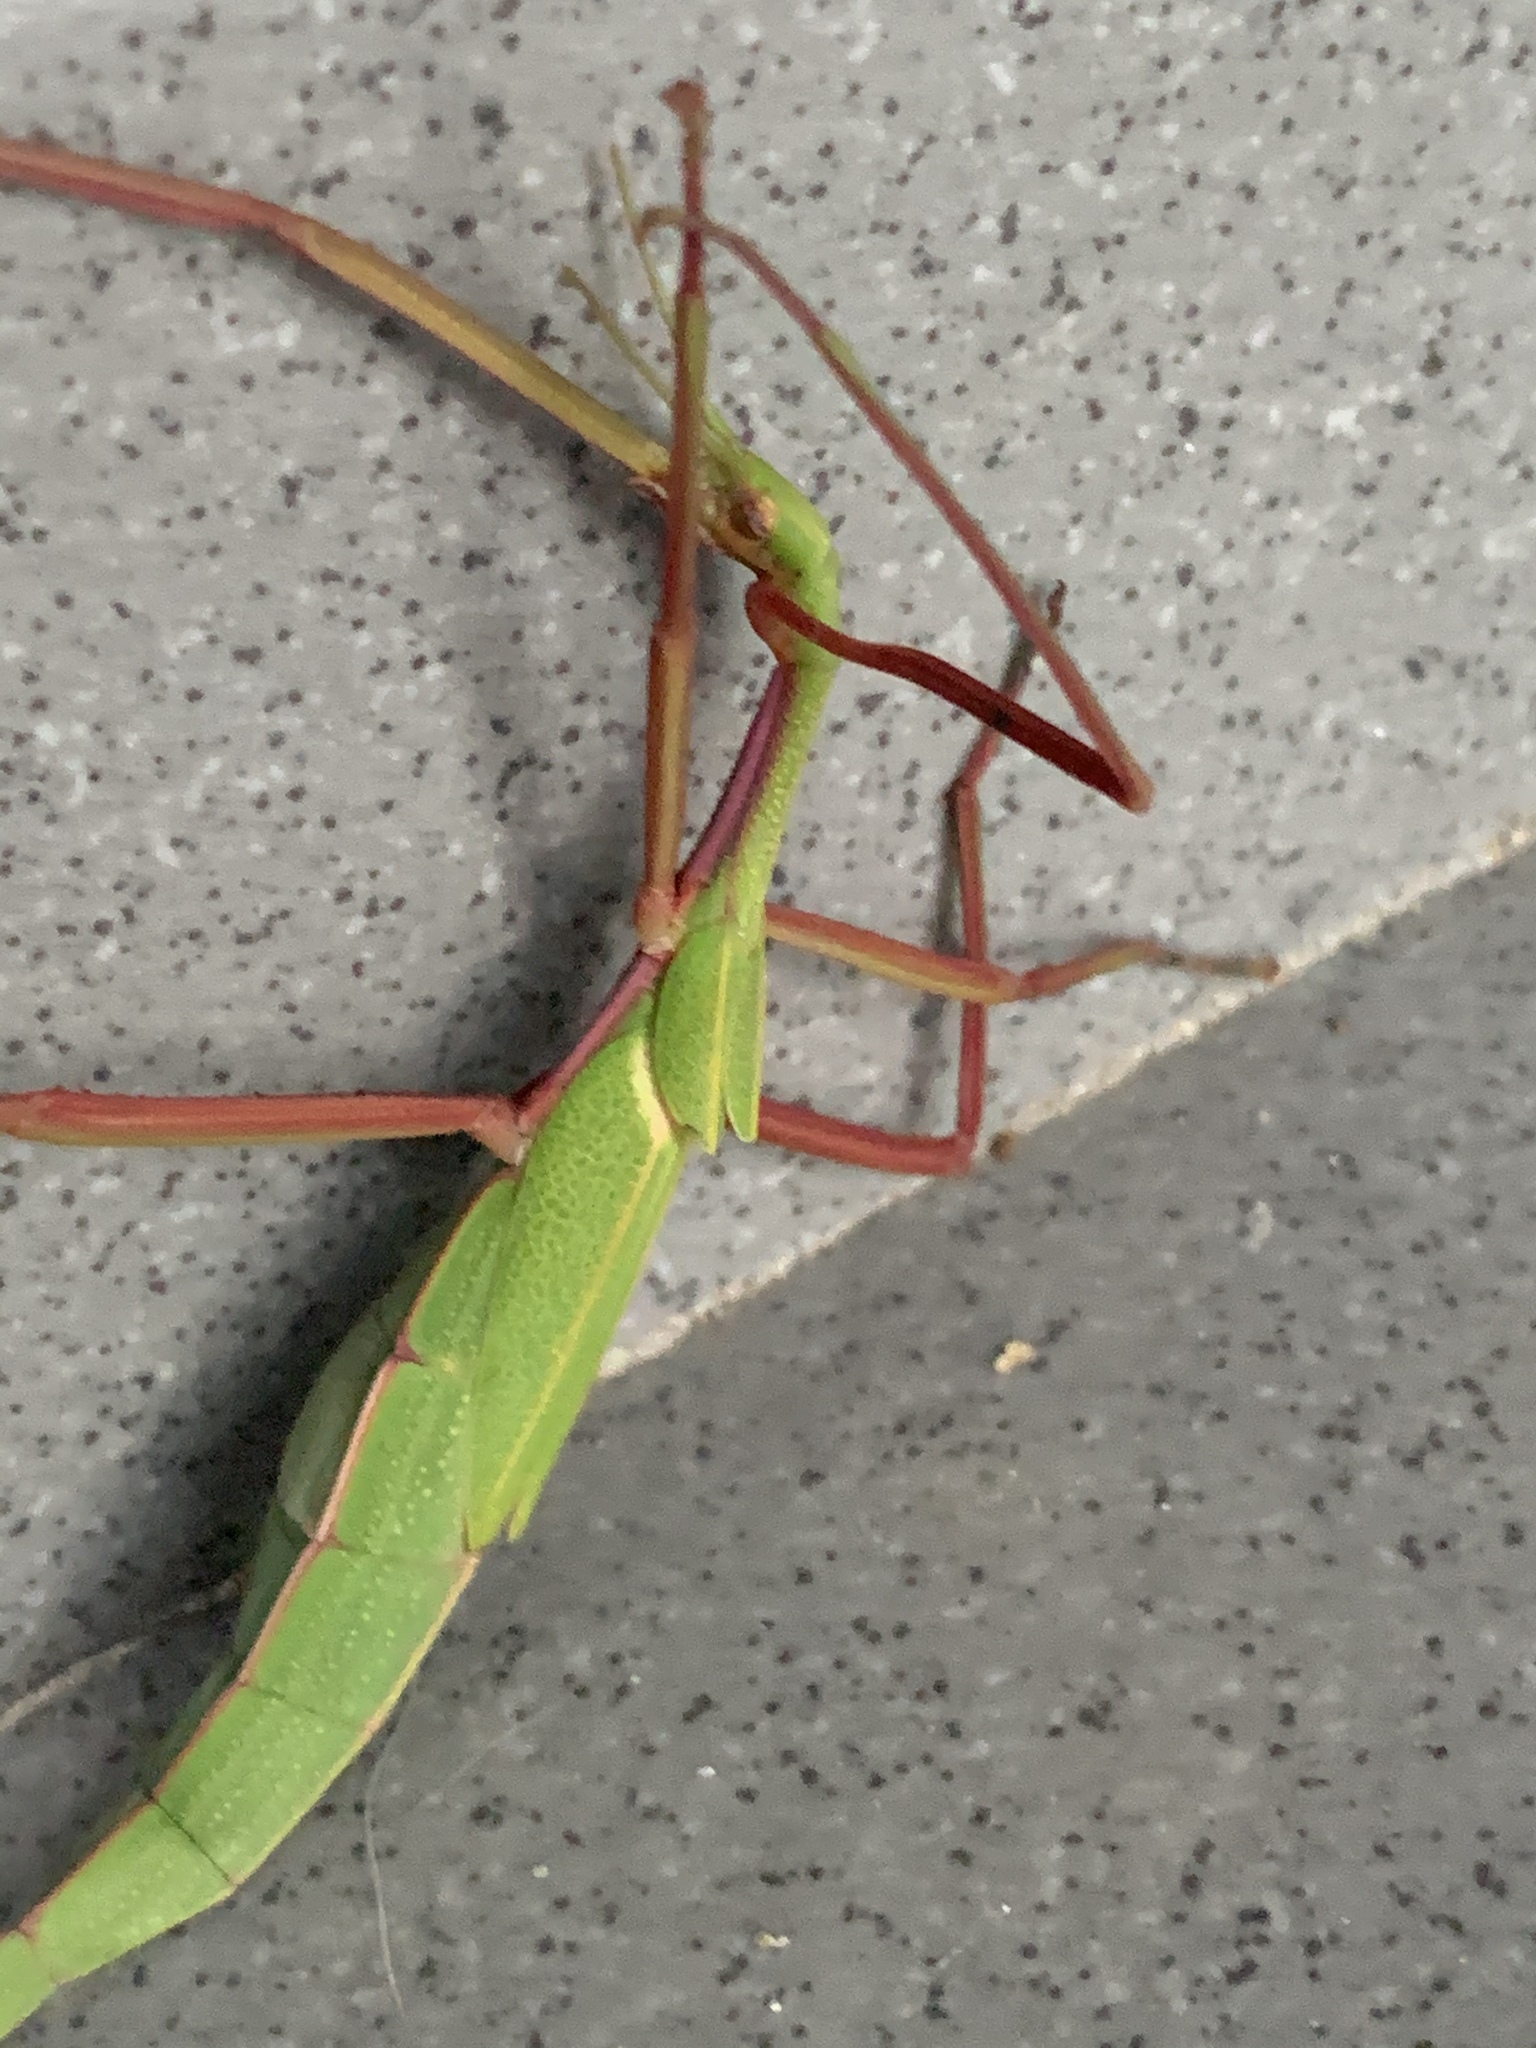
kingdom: Animalia
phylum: Arthropoda
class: Insecta
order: Phasmida
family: Phasmatidae
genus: Didymuria
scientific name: Didymuria violescens
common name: Spur-legged stick-insect
